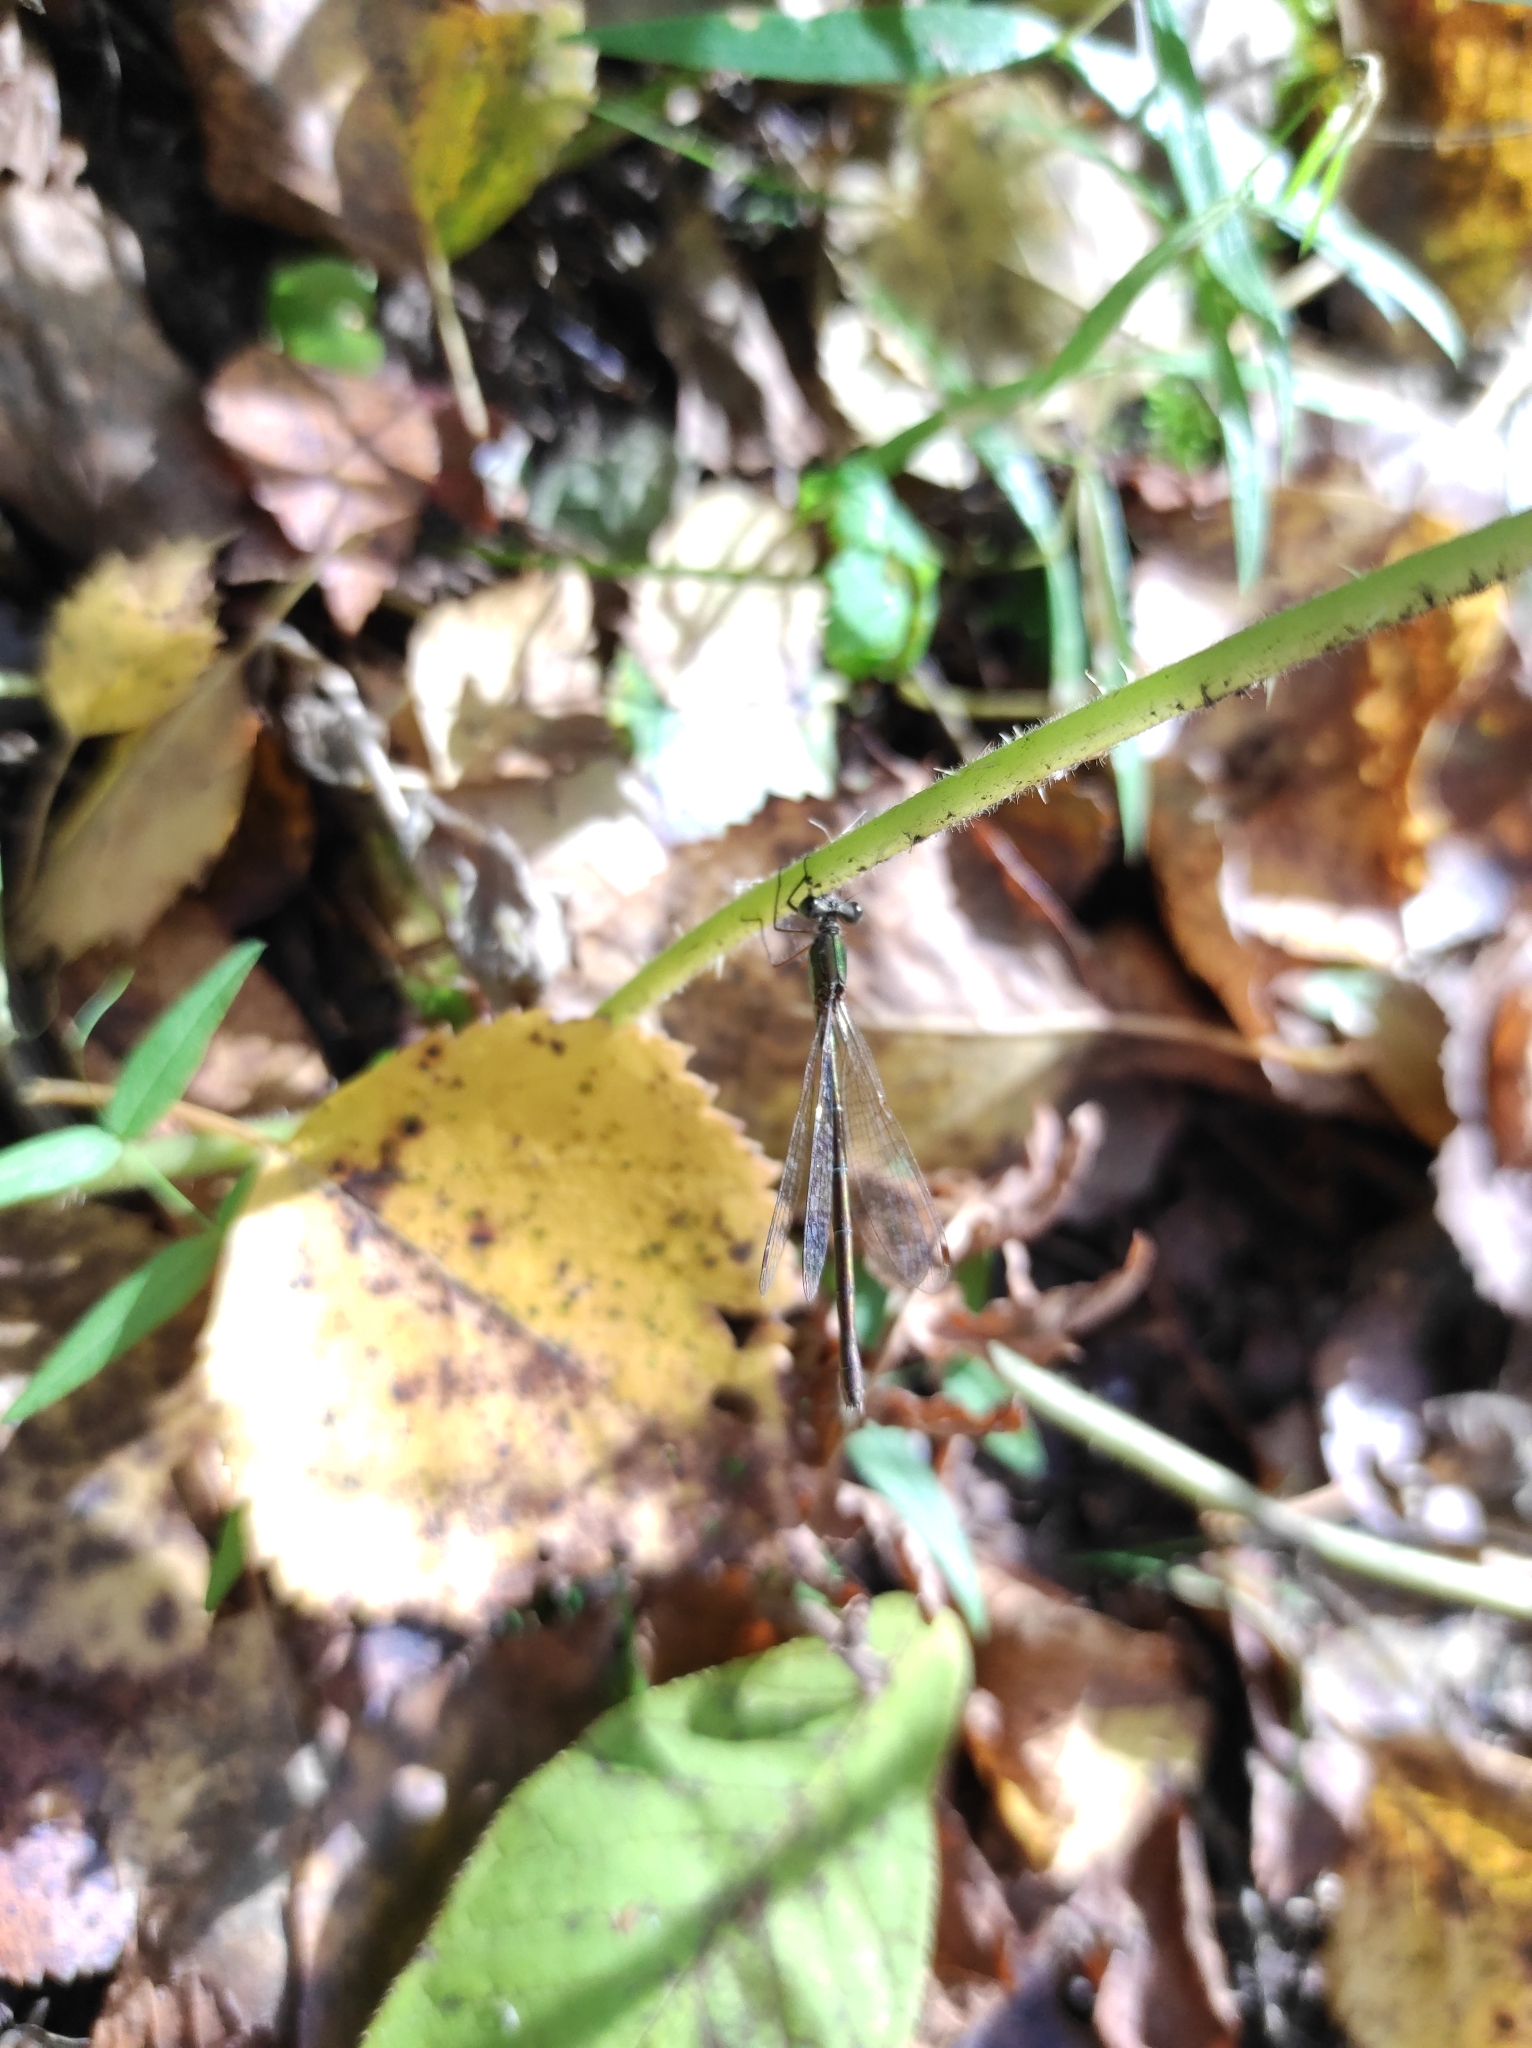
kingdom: Animalia
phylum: Arthropoda
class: Insecta
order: Odonata
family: Lestidae
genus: Lestes
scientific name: Lestes virens
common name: Small emerald spreadwing
